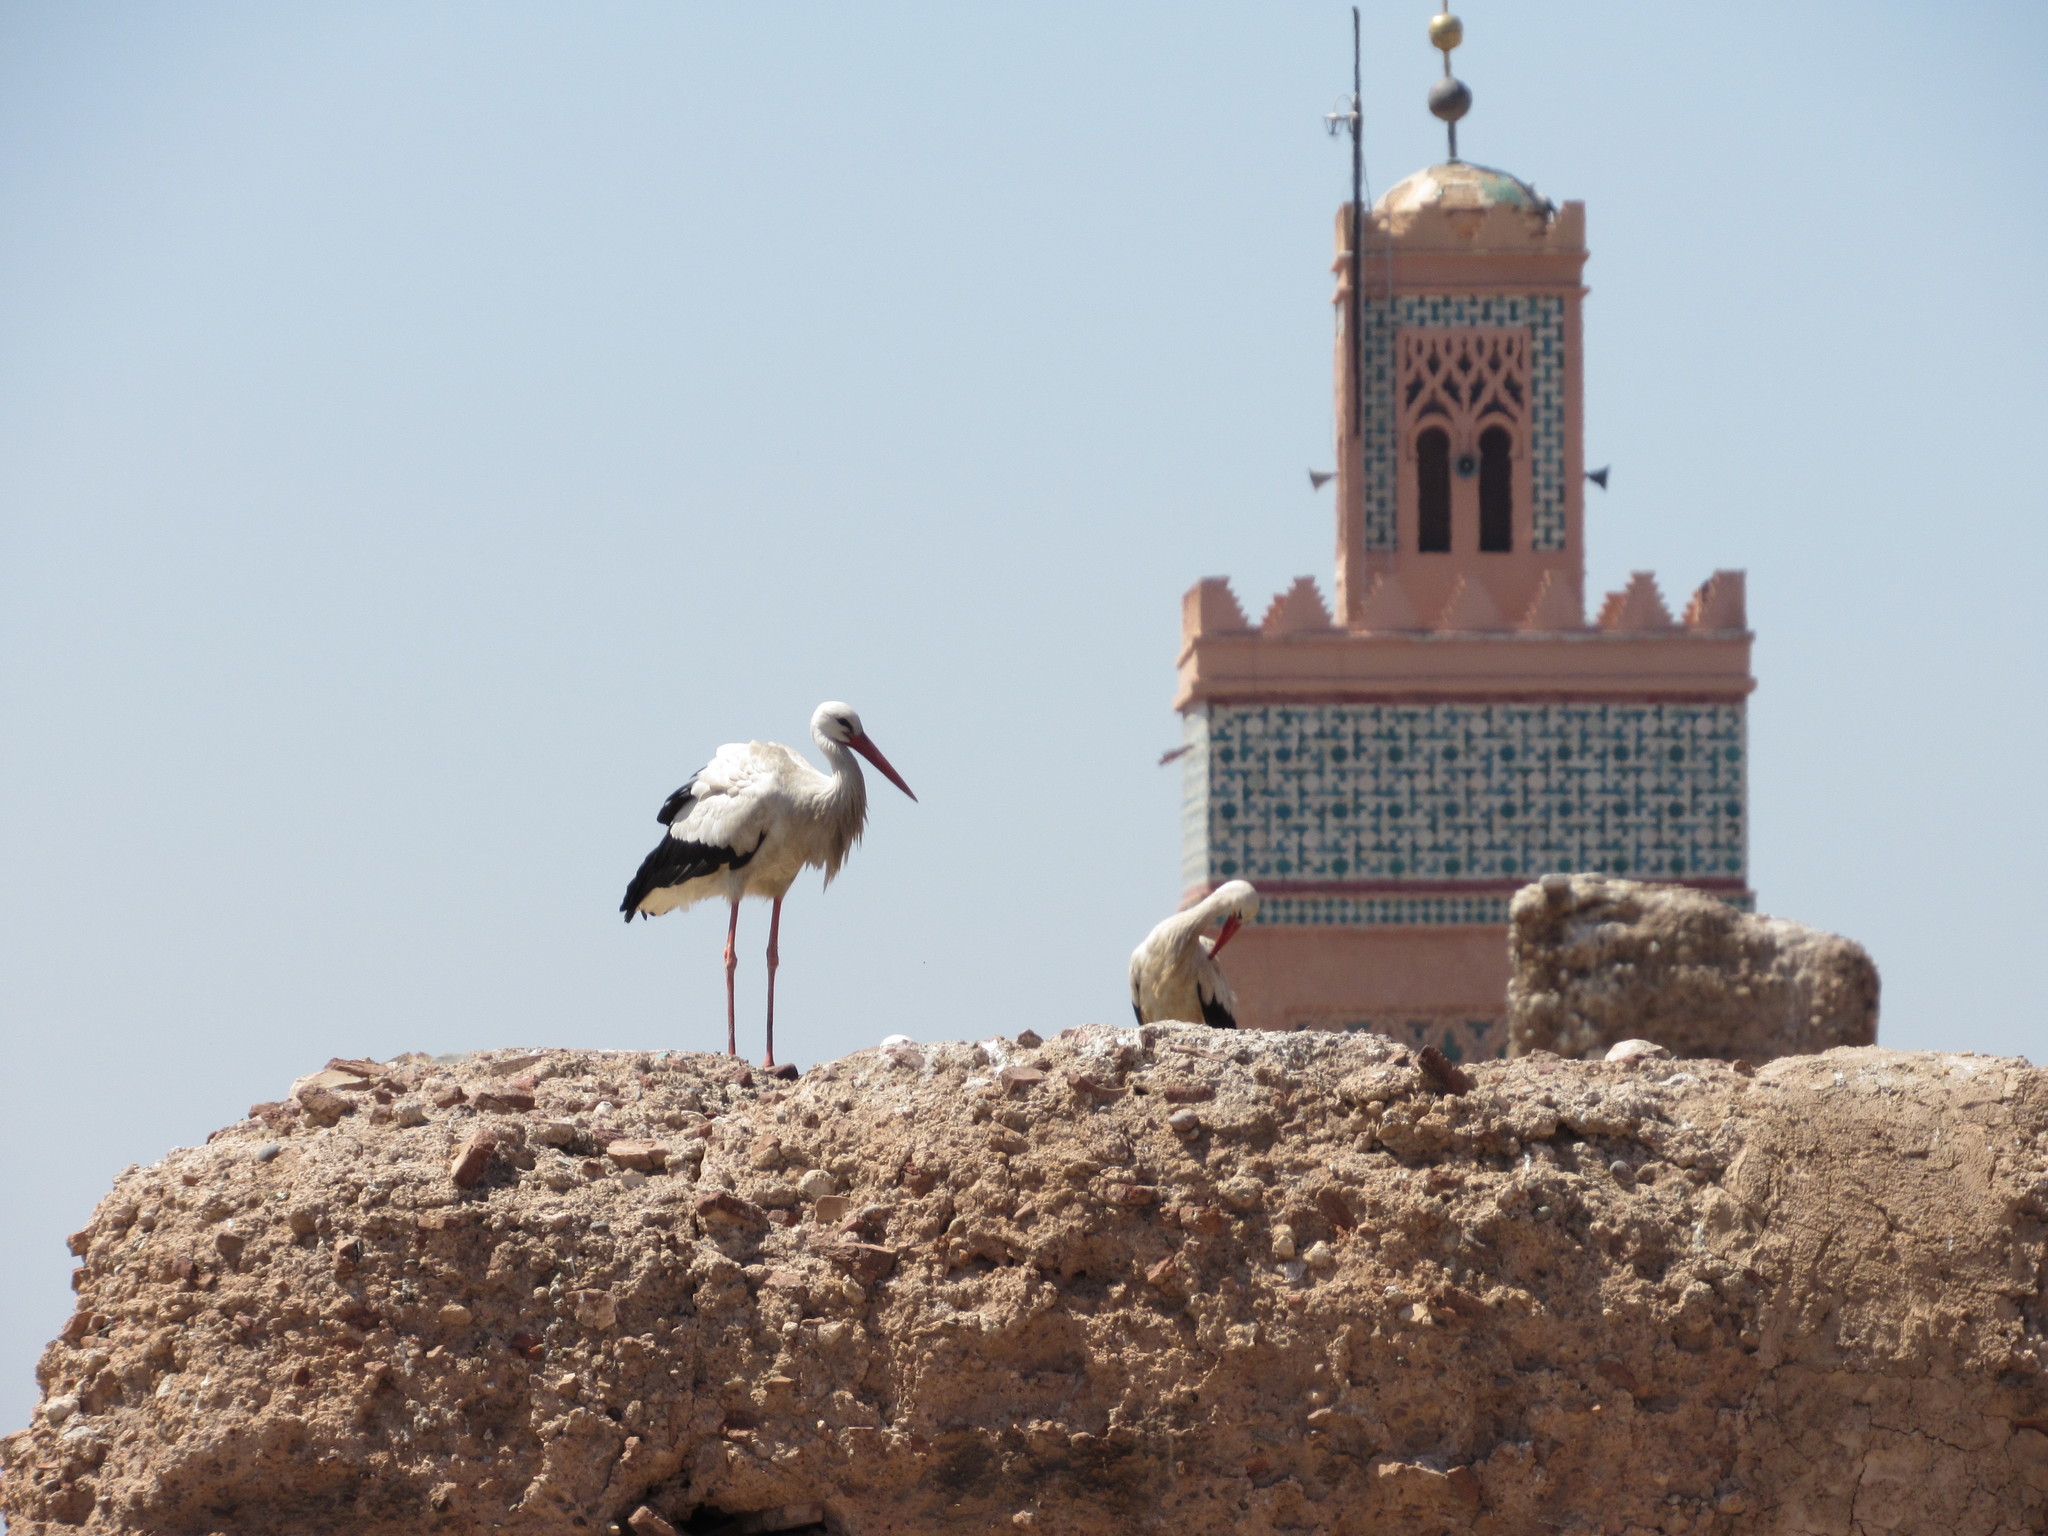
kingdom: Animalia
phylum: Chordata
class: Aves
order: Ciconiiformes
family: Ciconiidae
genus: Ciconia
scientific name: Ciconia ciconia
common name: White stork
